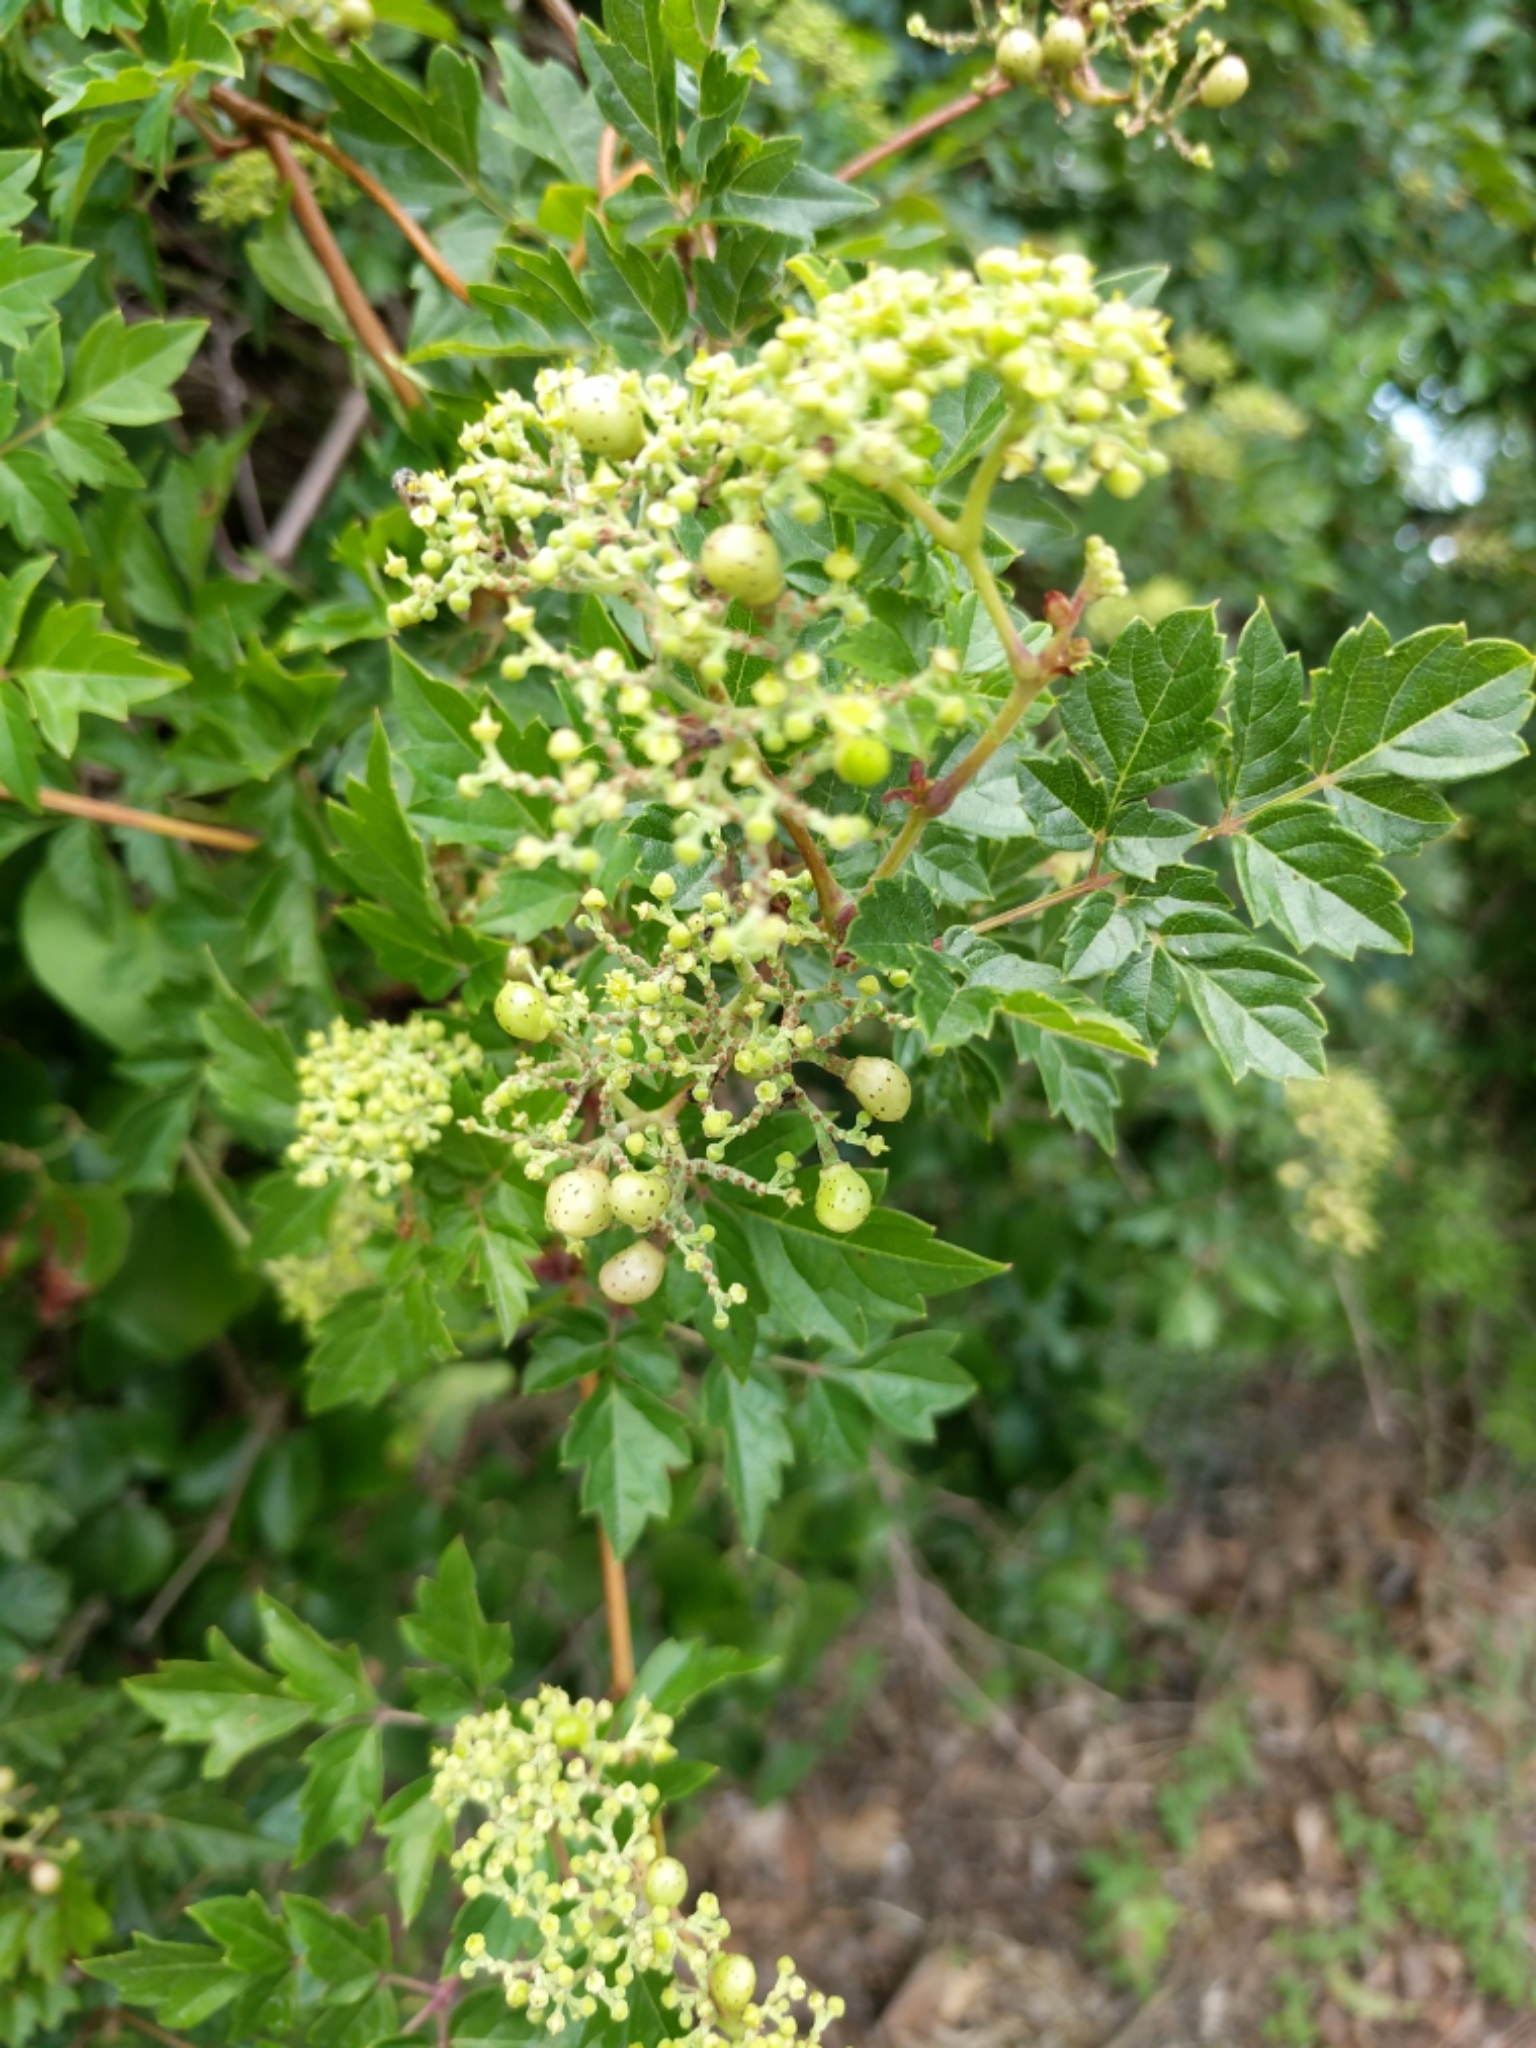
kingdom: Plantae
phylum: Tracheophyta
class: Magnoliopsida
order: Vitales
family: Vitaceae
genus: Nekemias
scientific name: Nekemias arborea
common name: Peppervine
